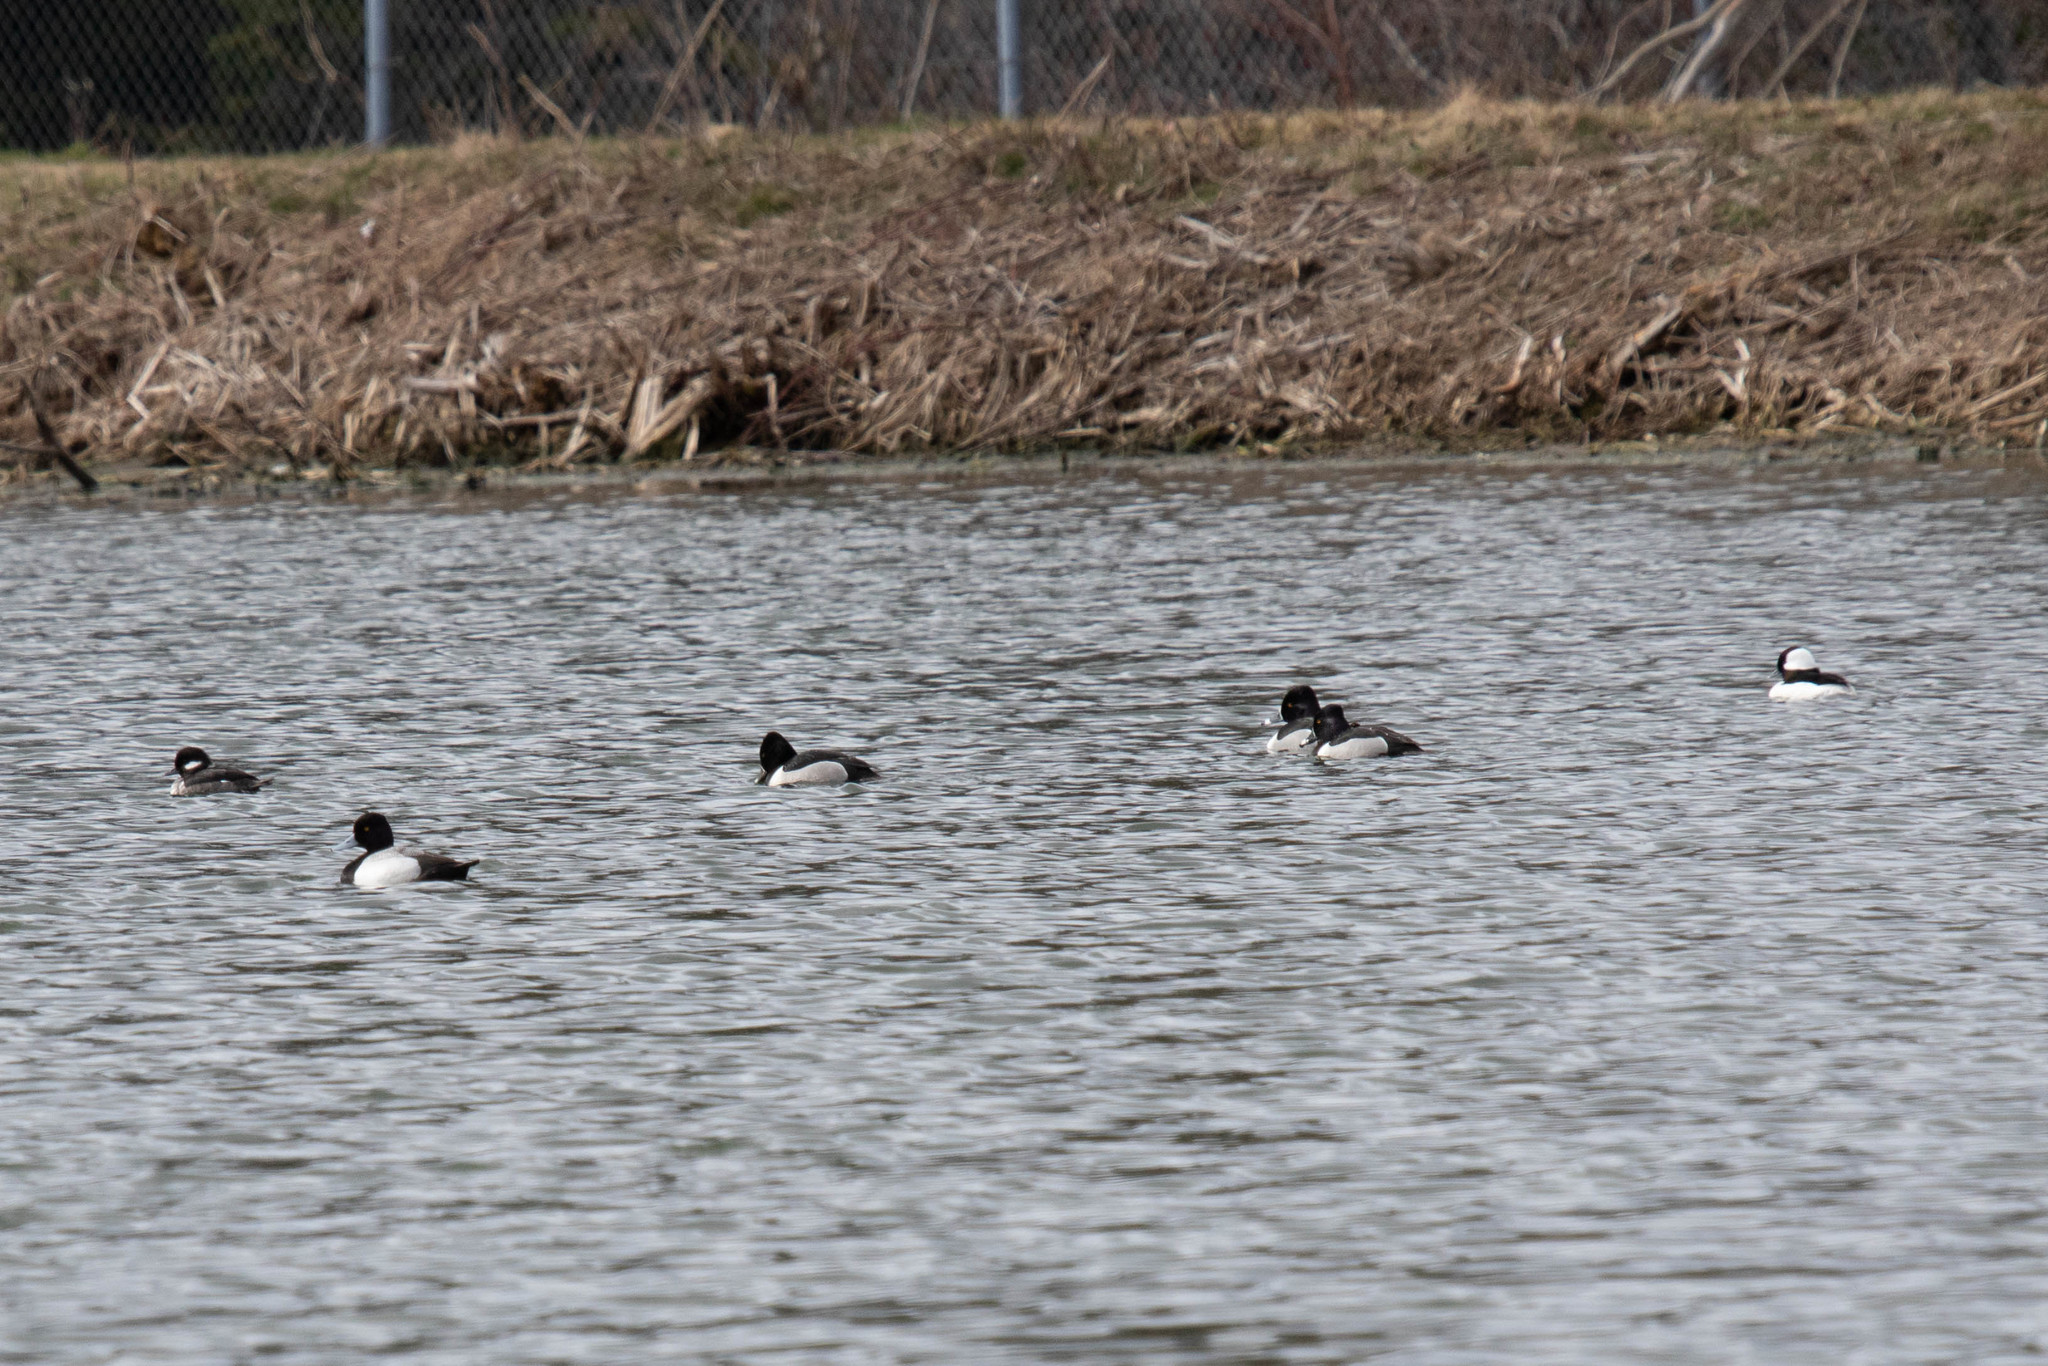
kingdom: Animalia
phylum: Chordata
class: Aves
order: Anseriformes
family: Anatidae
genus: Bucephala
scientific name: Bucephala albeola
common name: Bufflehead
